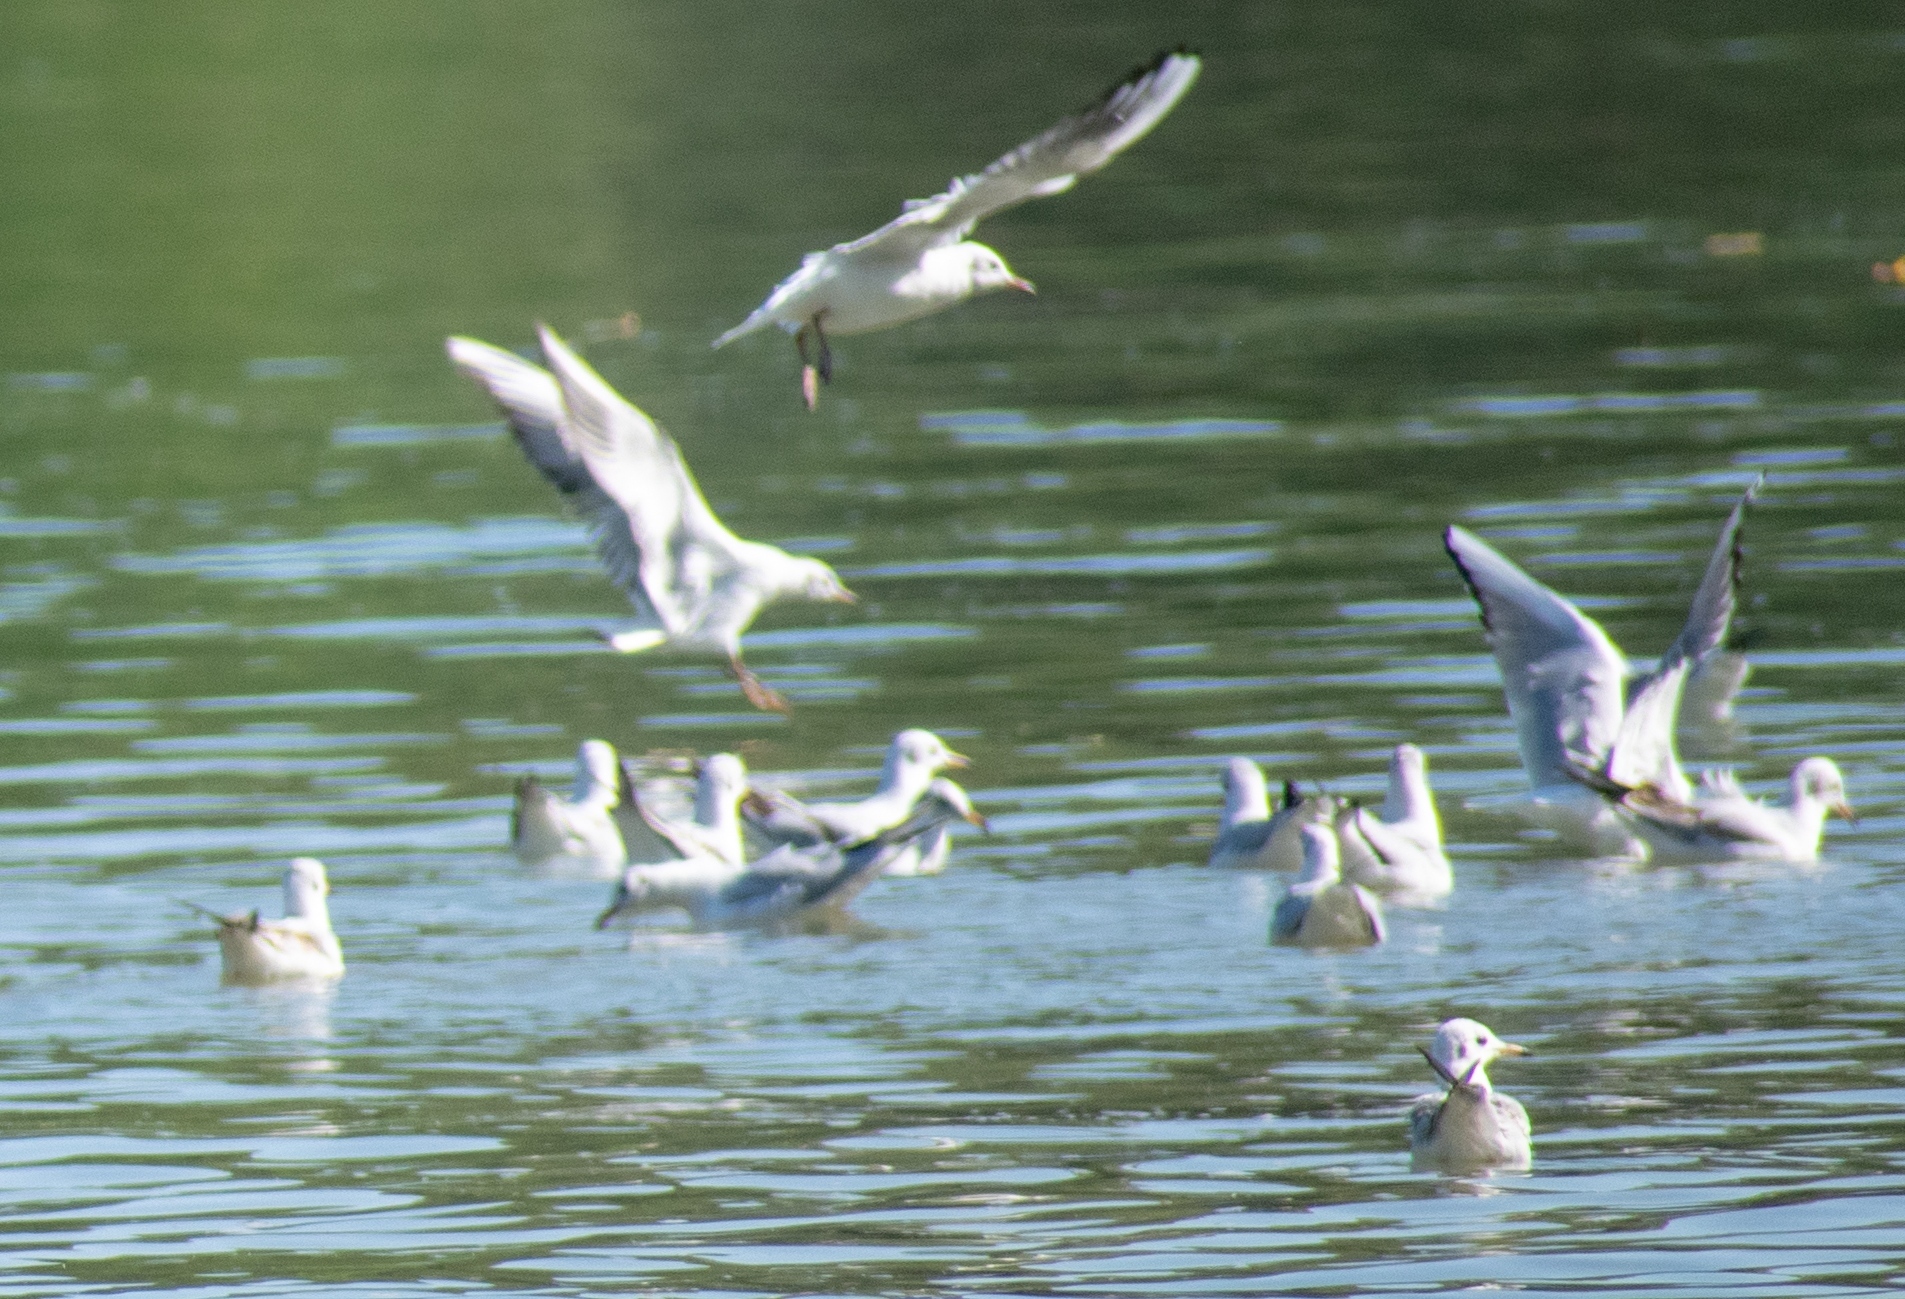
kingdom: Animalia
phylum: Chordata
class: Aves
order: Charadriiformes
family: Laridae
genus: Chroicocephalus
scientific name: Chroicocephalus ridibundus
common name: Black-headed gull
